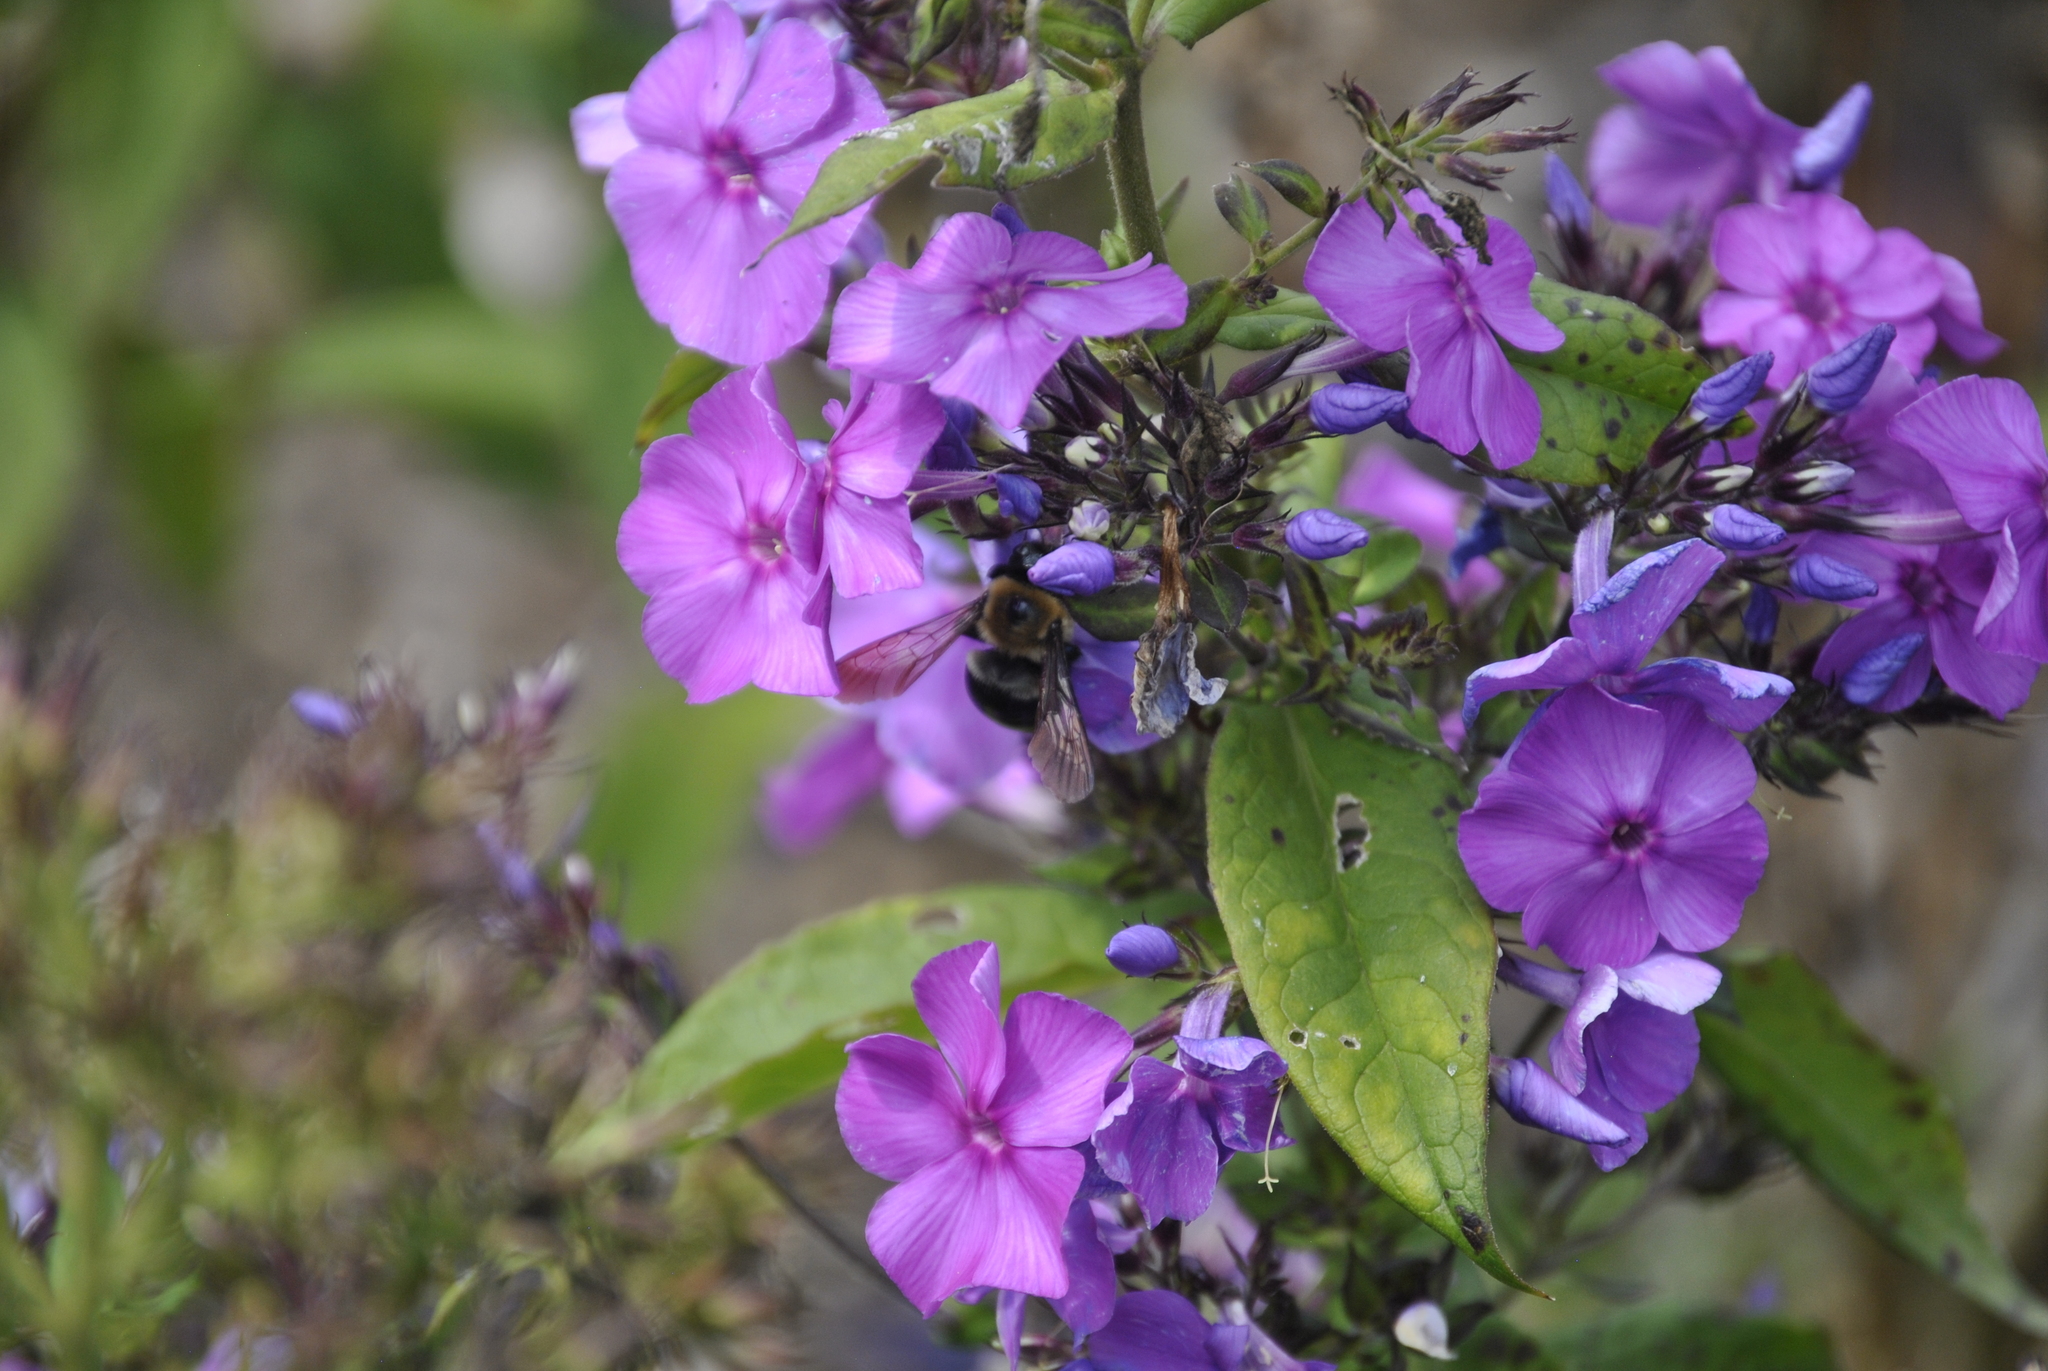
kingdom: Animalia
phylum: Arthropoda
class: Insecta
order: Hymenoptera
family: Apidae
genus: Xylocopa
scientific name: Xylocopa virginica
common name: Carpenter bee
